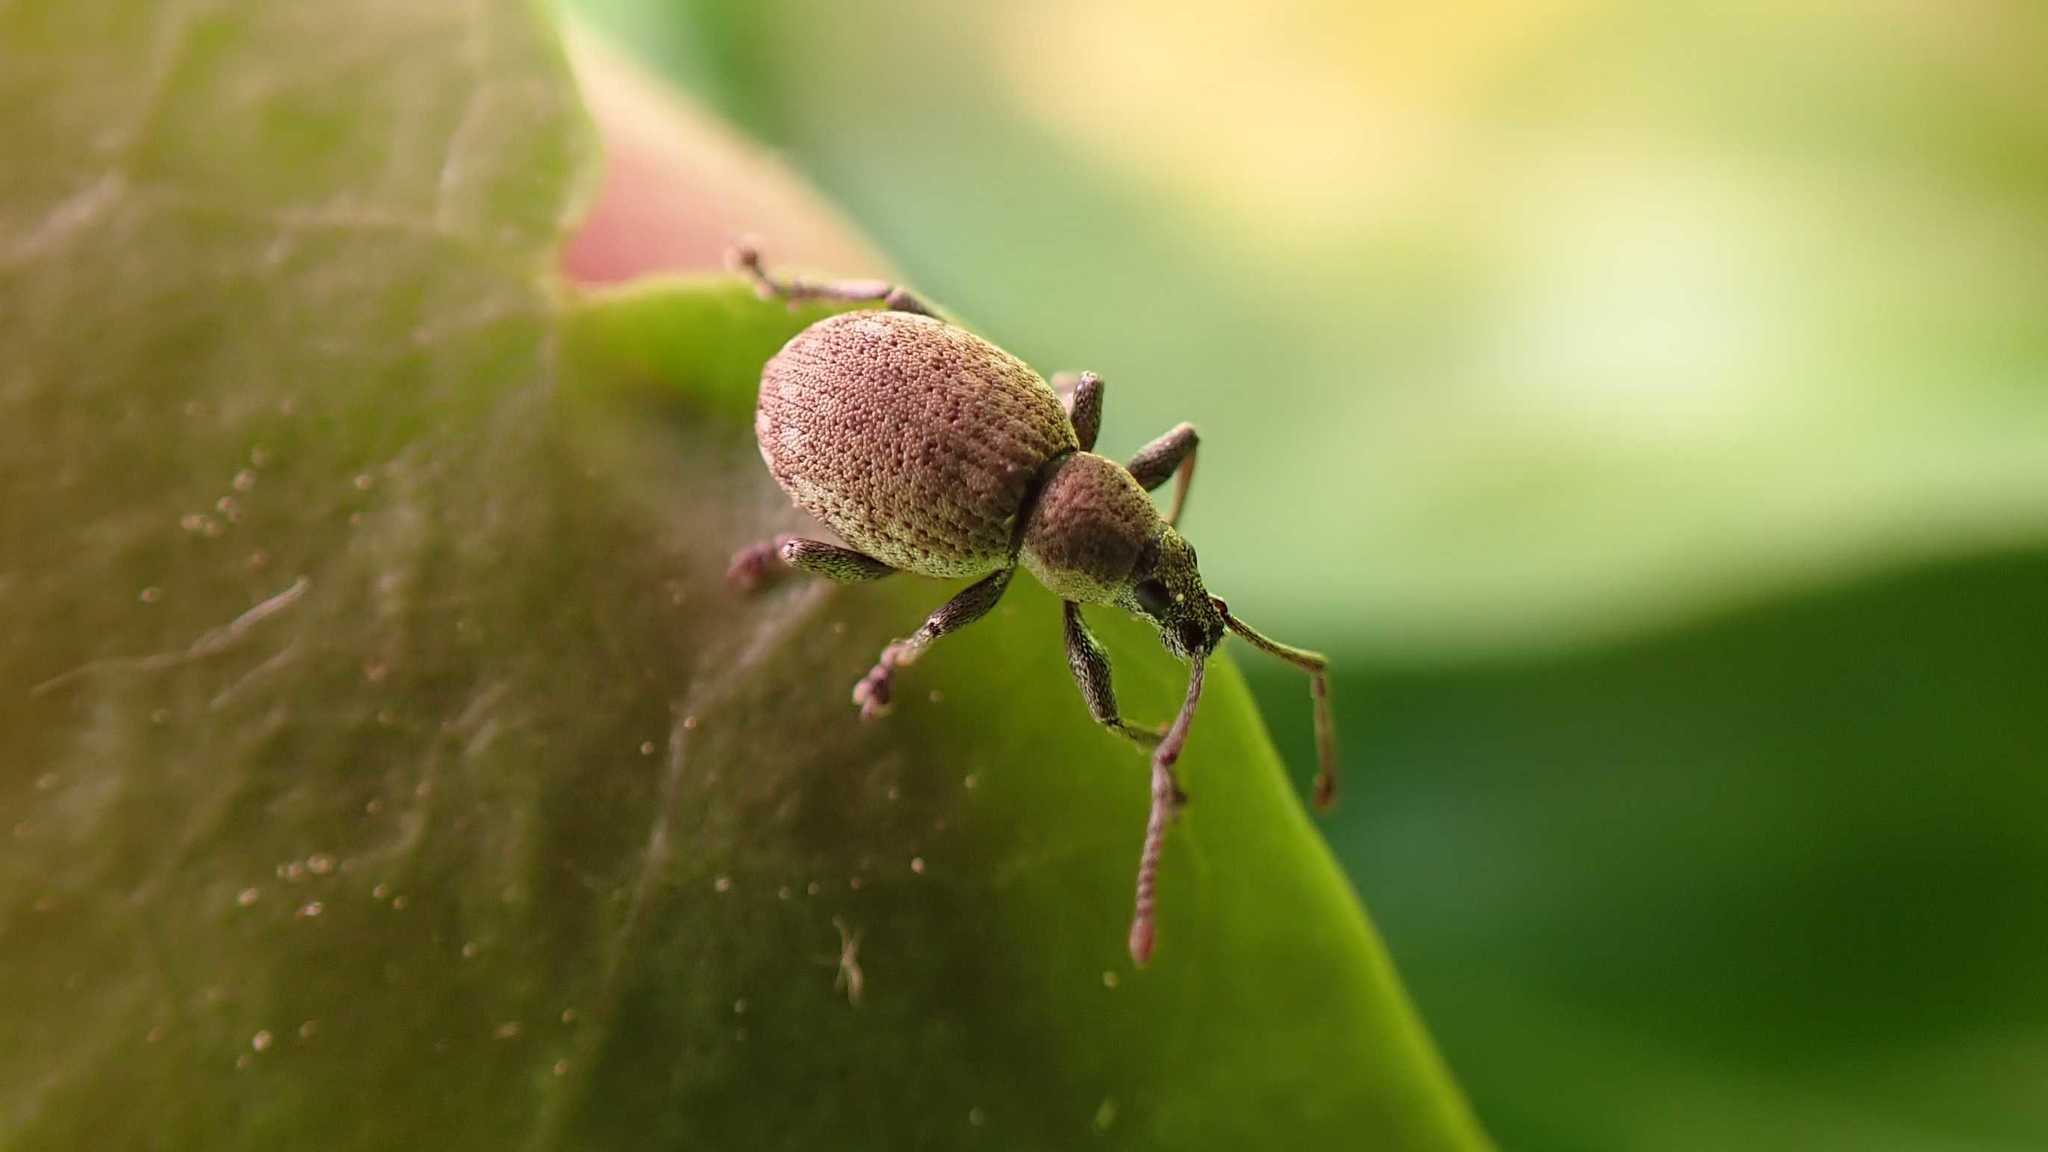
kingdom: Animalia
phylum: Arthropoda
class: Insecta
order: Coleoptera
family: Curculionidae
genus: Peritelus
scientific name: Peritelus sphaeroides
